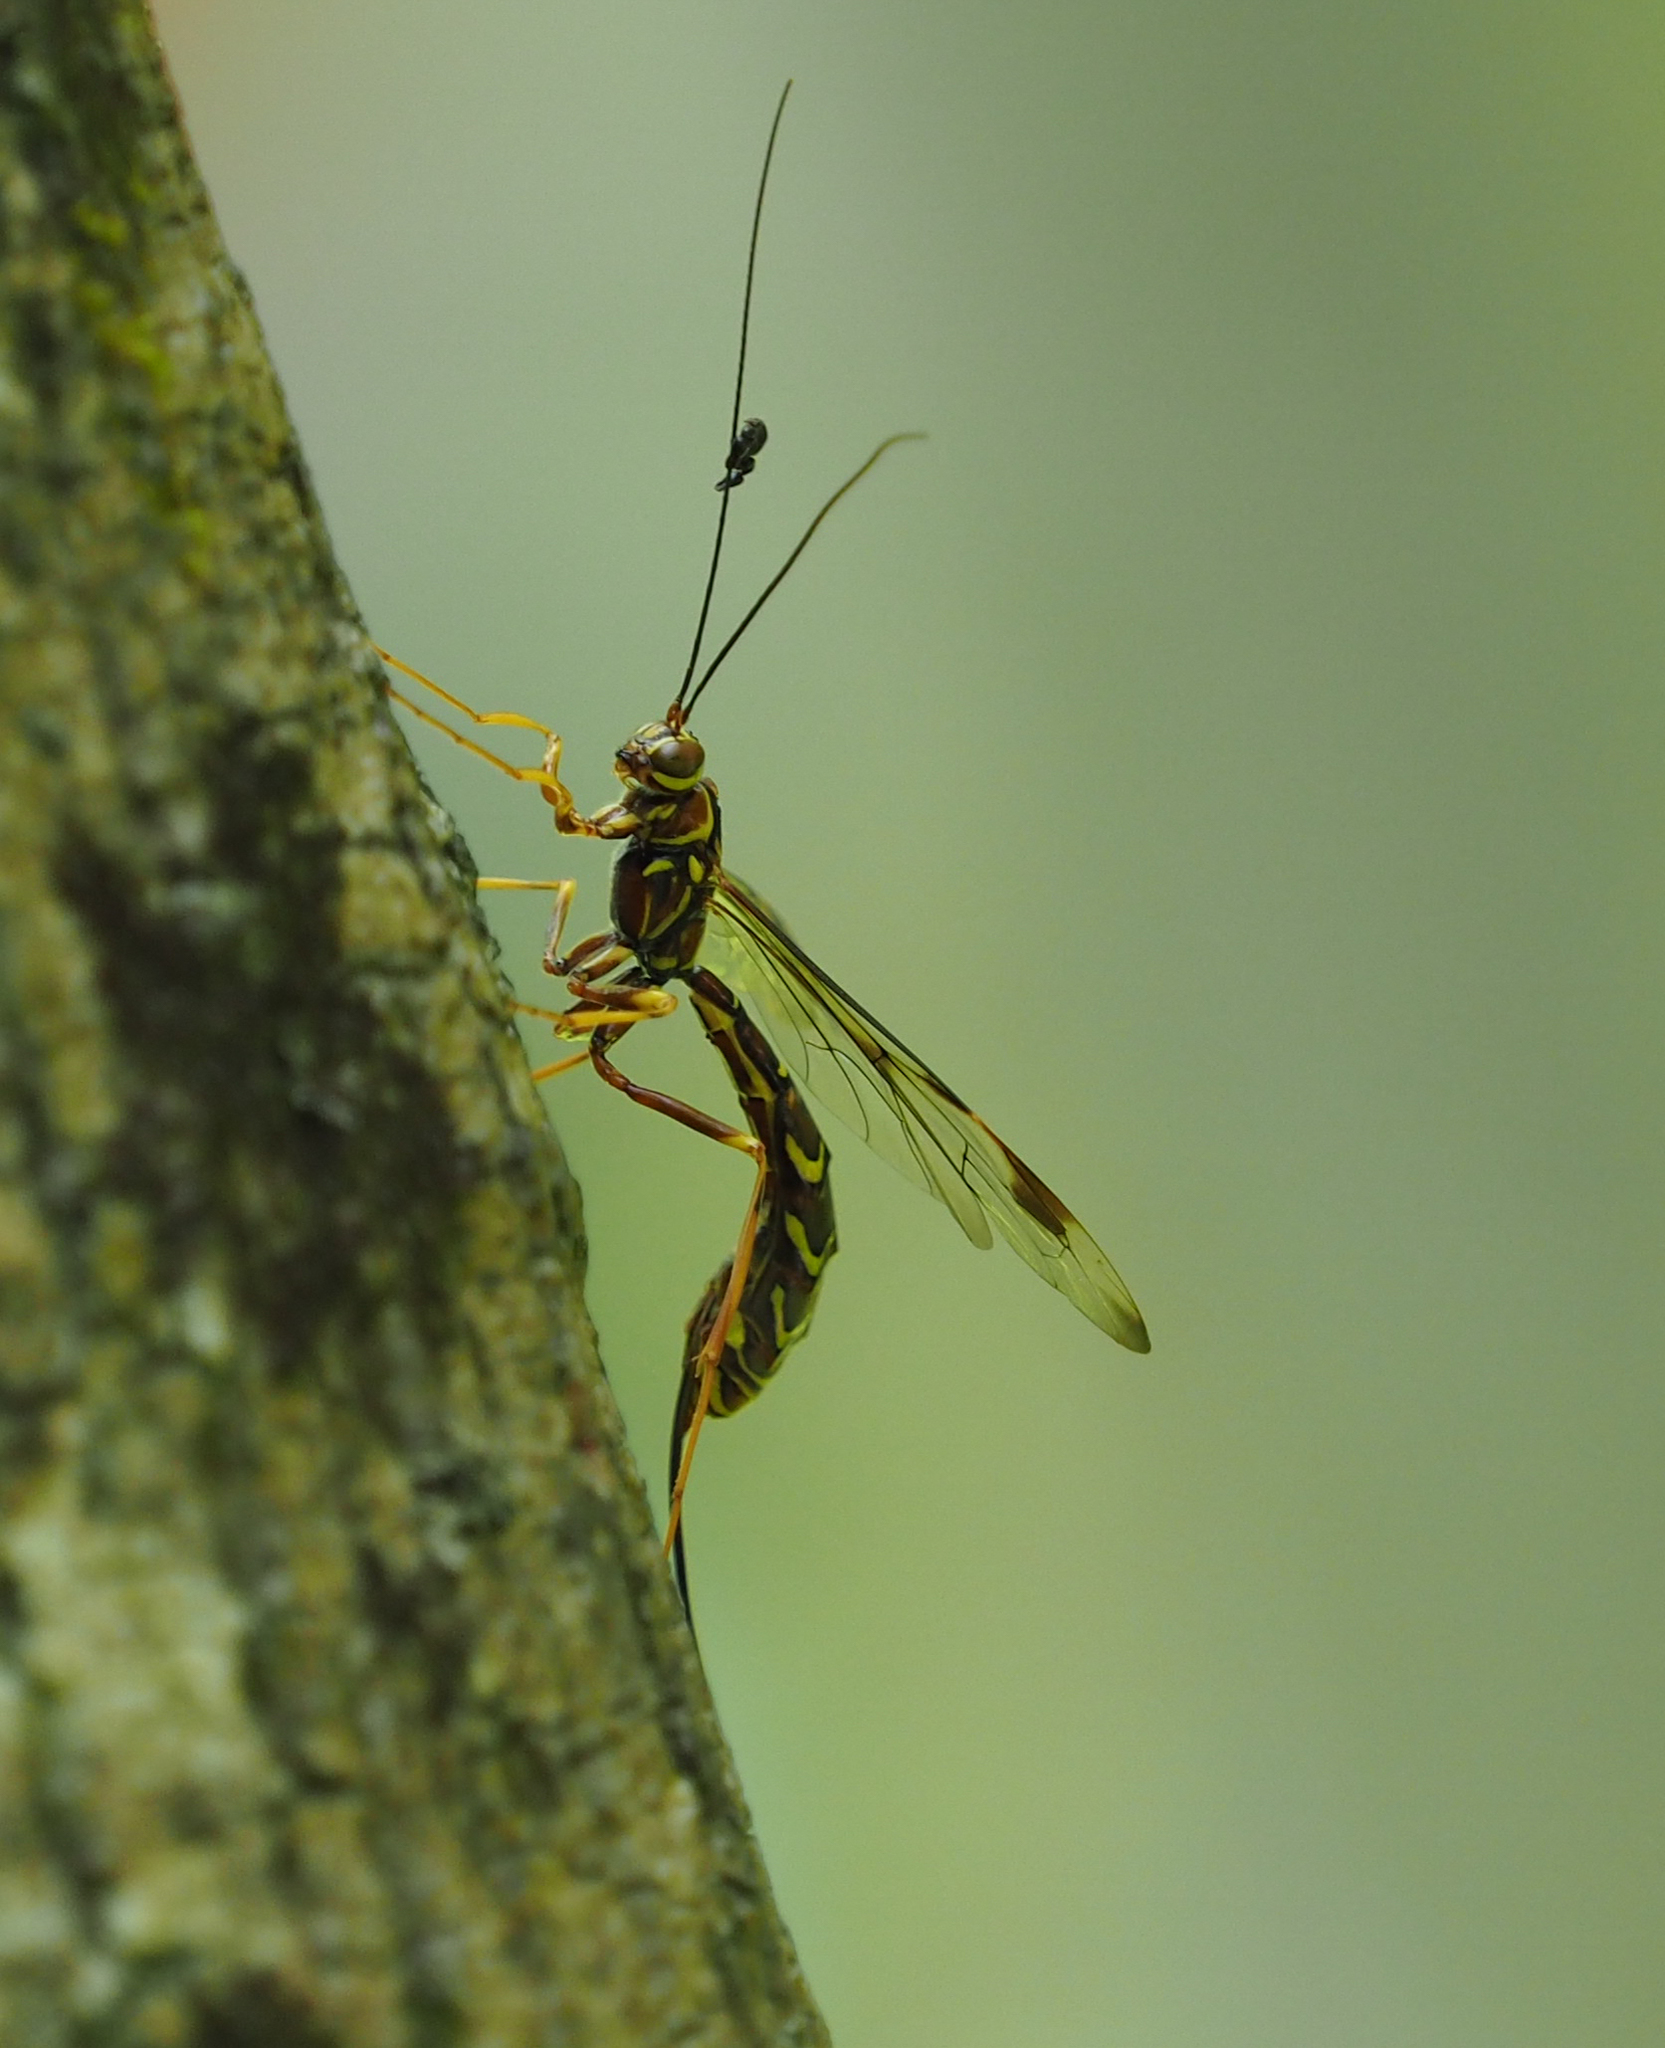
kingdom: Animalia
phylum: Arthropoda
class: Insecta
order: Hymenoptera
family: Ichneumonidae
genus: Megarhyssa
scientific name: Megarhyssa macrura
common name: Long-tailed giant ichneumonid wasp
